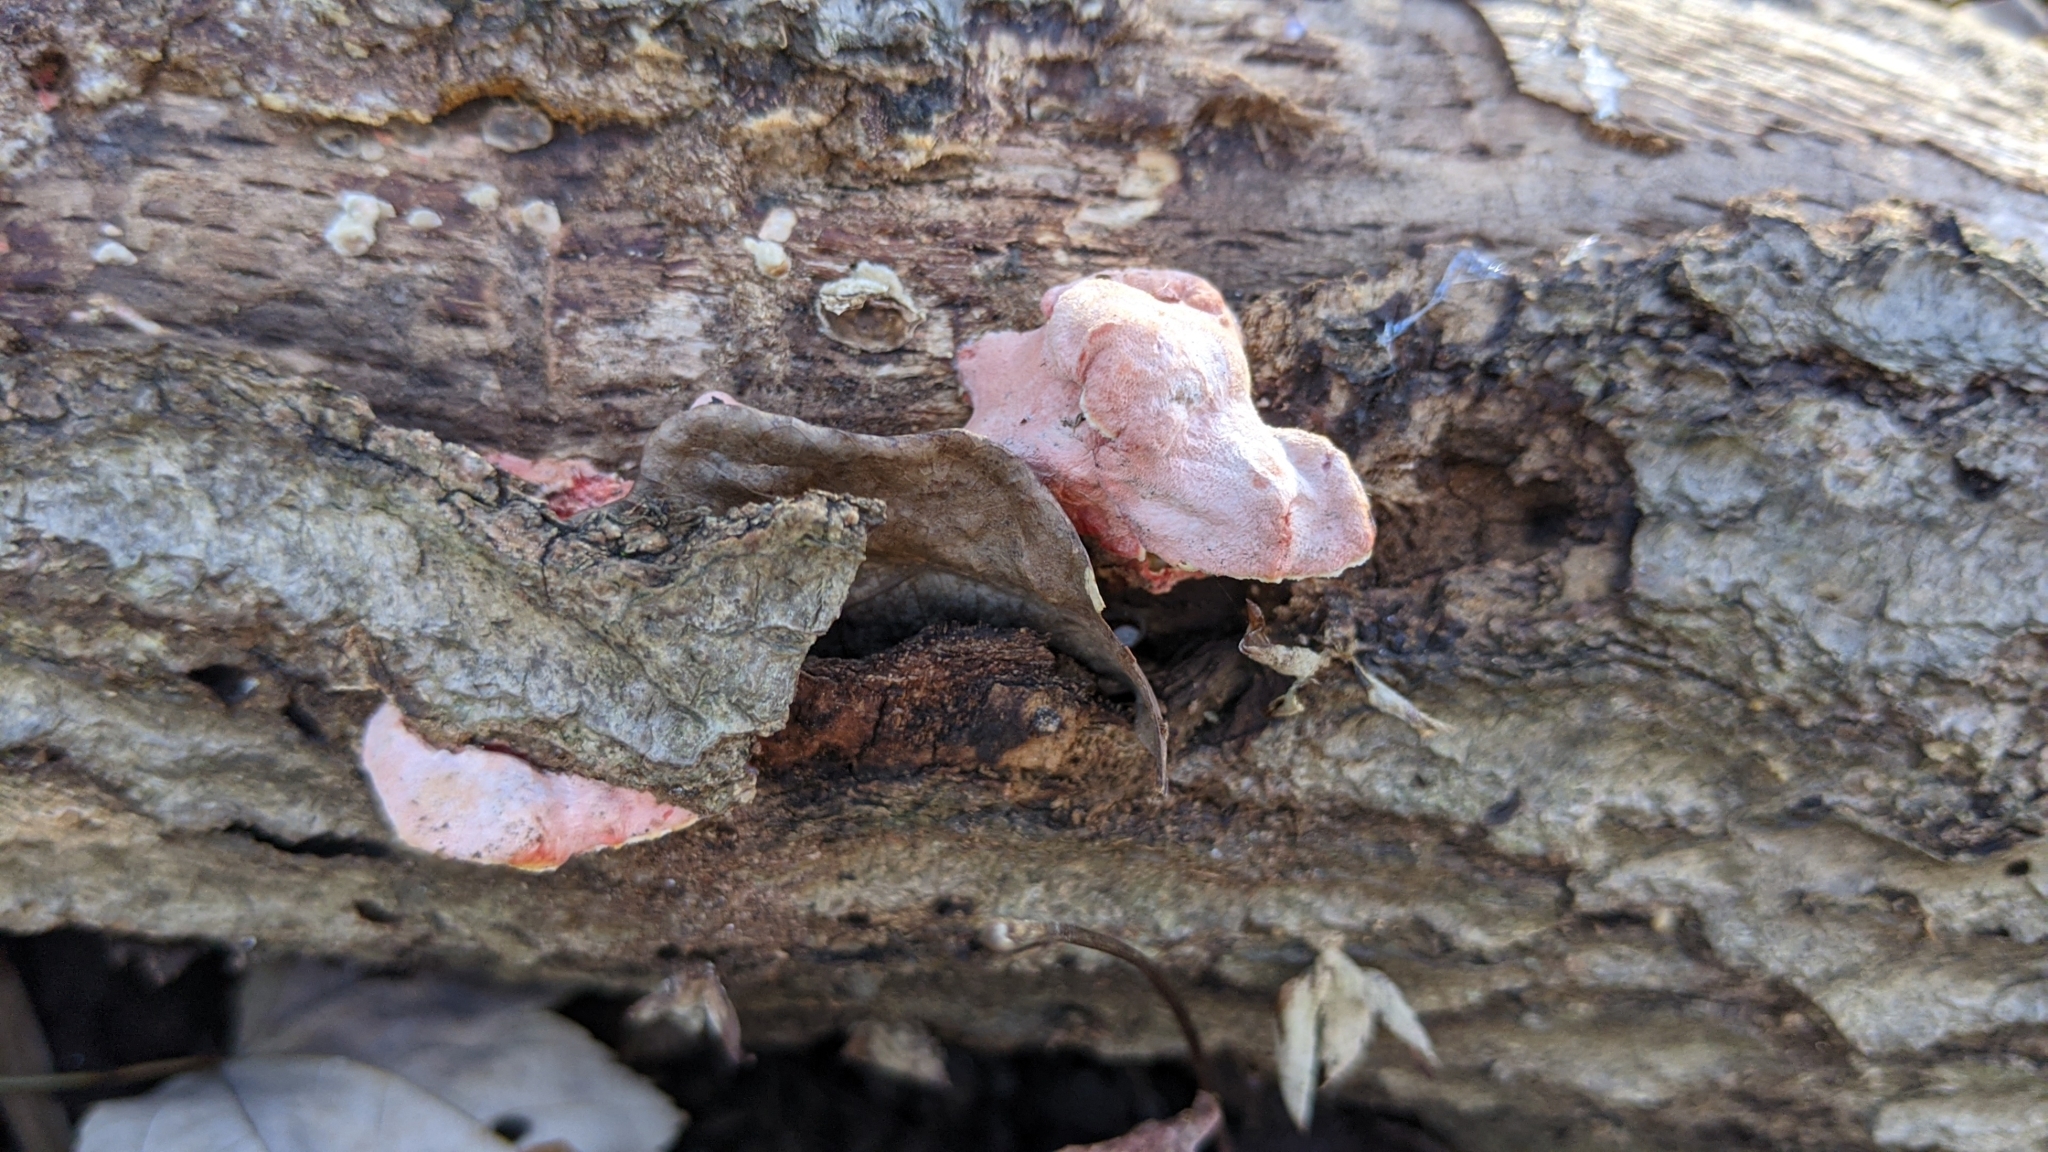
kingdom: Fungi
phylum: Basidiomycota
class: Agaricomycetes
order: Polyporales
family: Irpicaceae
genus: Byssomerulius
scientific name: Byssomerulius incarnatus
